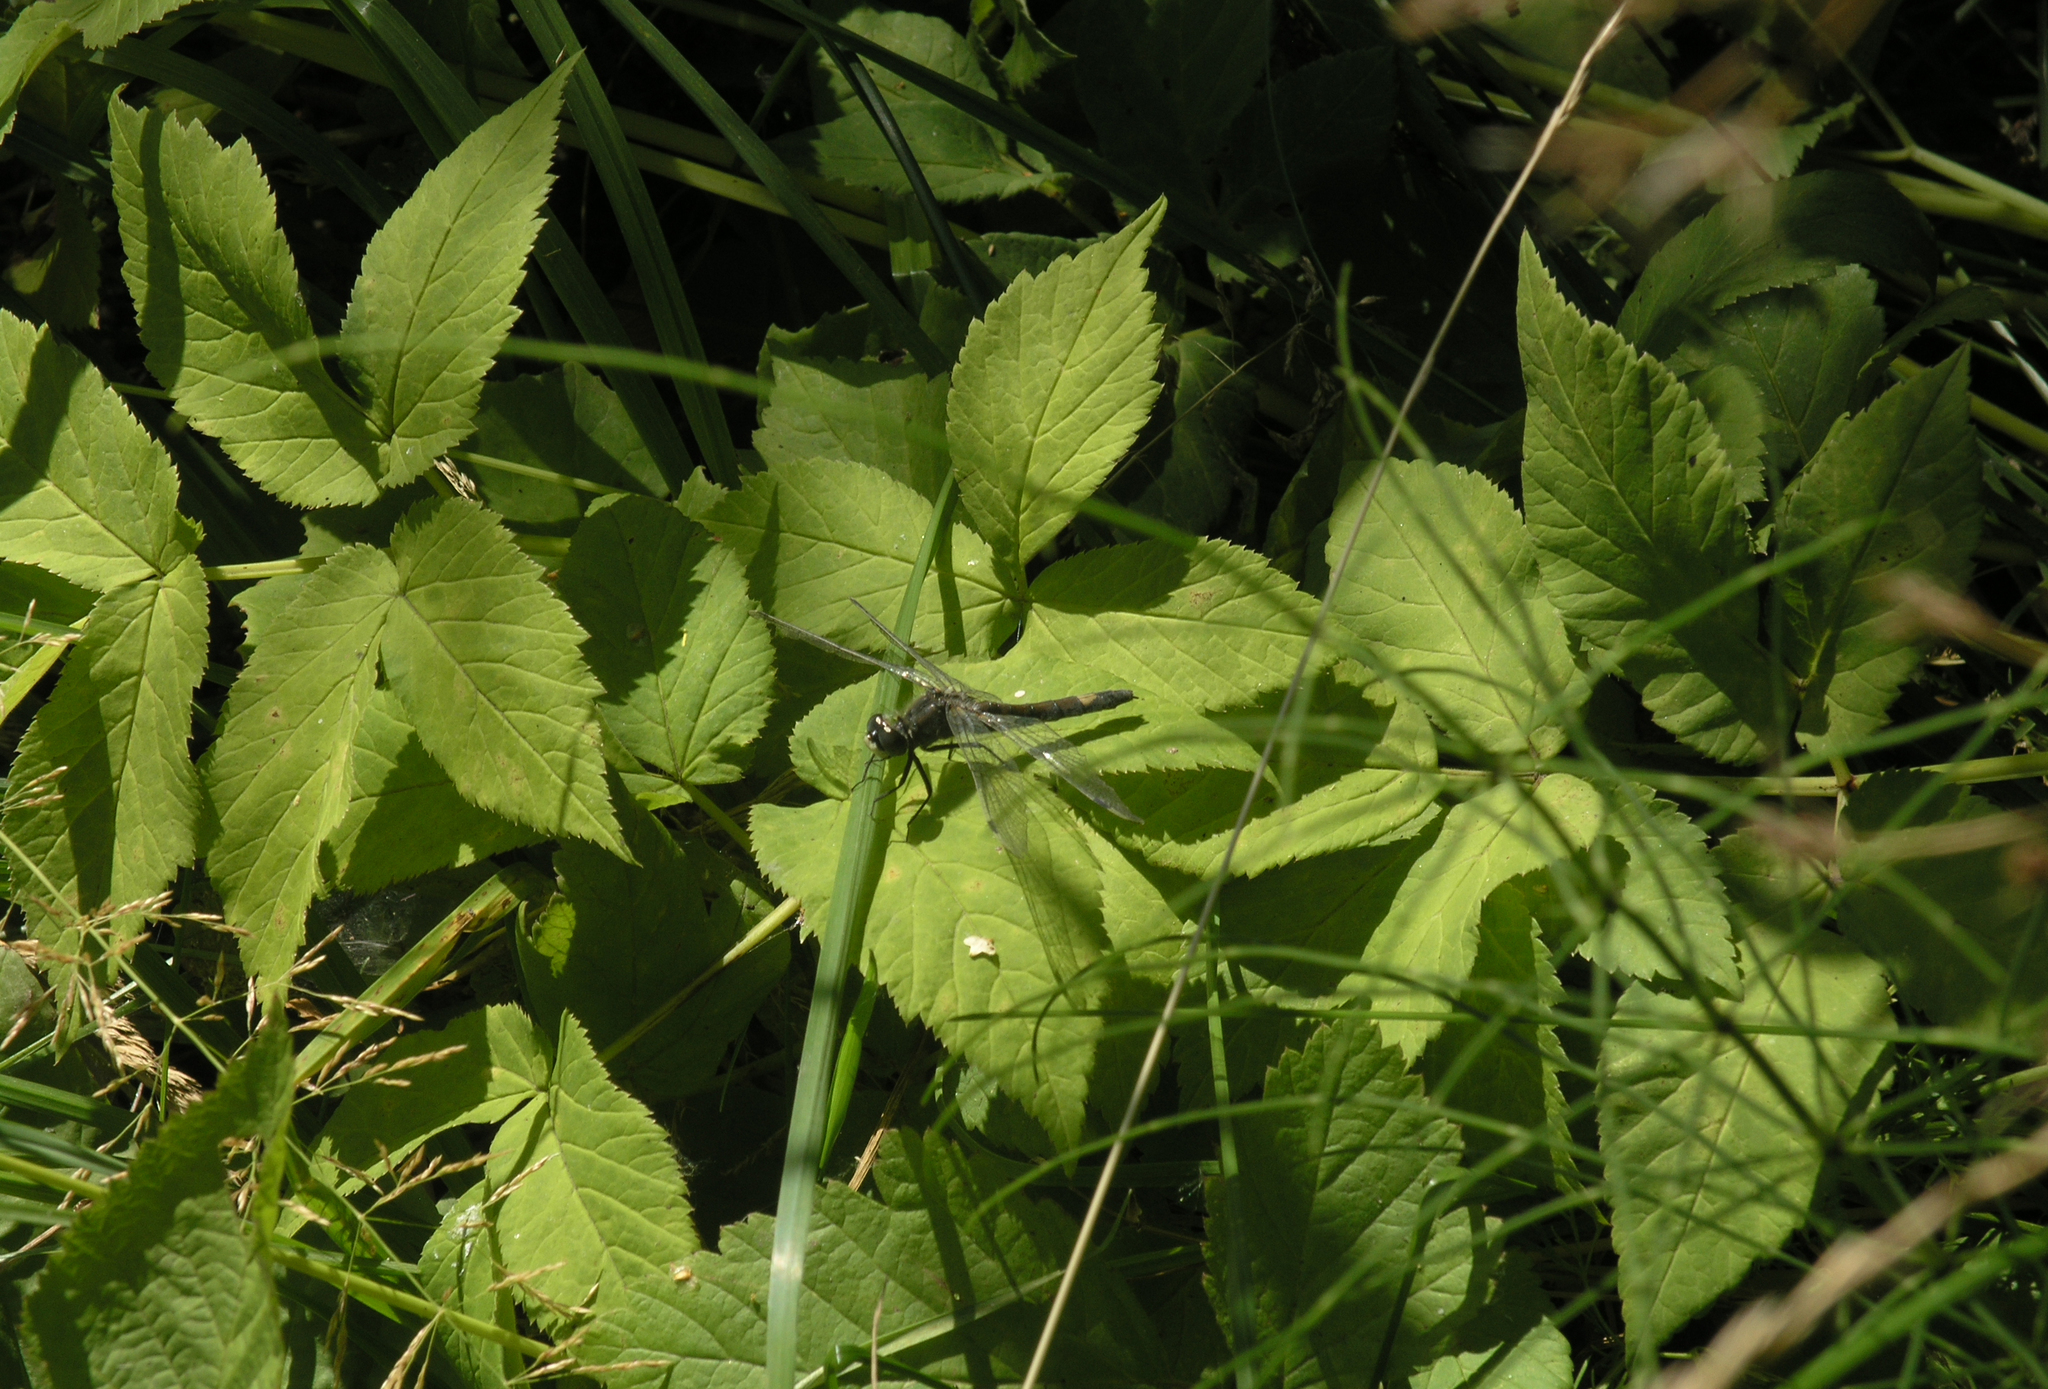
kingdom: Animalia
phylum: Arthropoda
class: Insecta
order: Odonata
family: Libellulidae
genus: Leucorrhinia
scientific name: Leucorrhinia pectoralis
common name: Yellow-spotted whiteface
